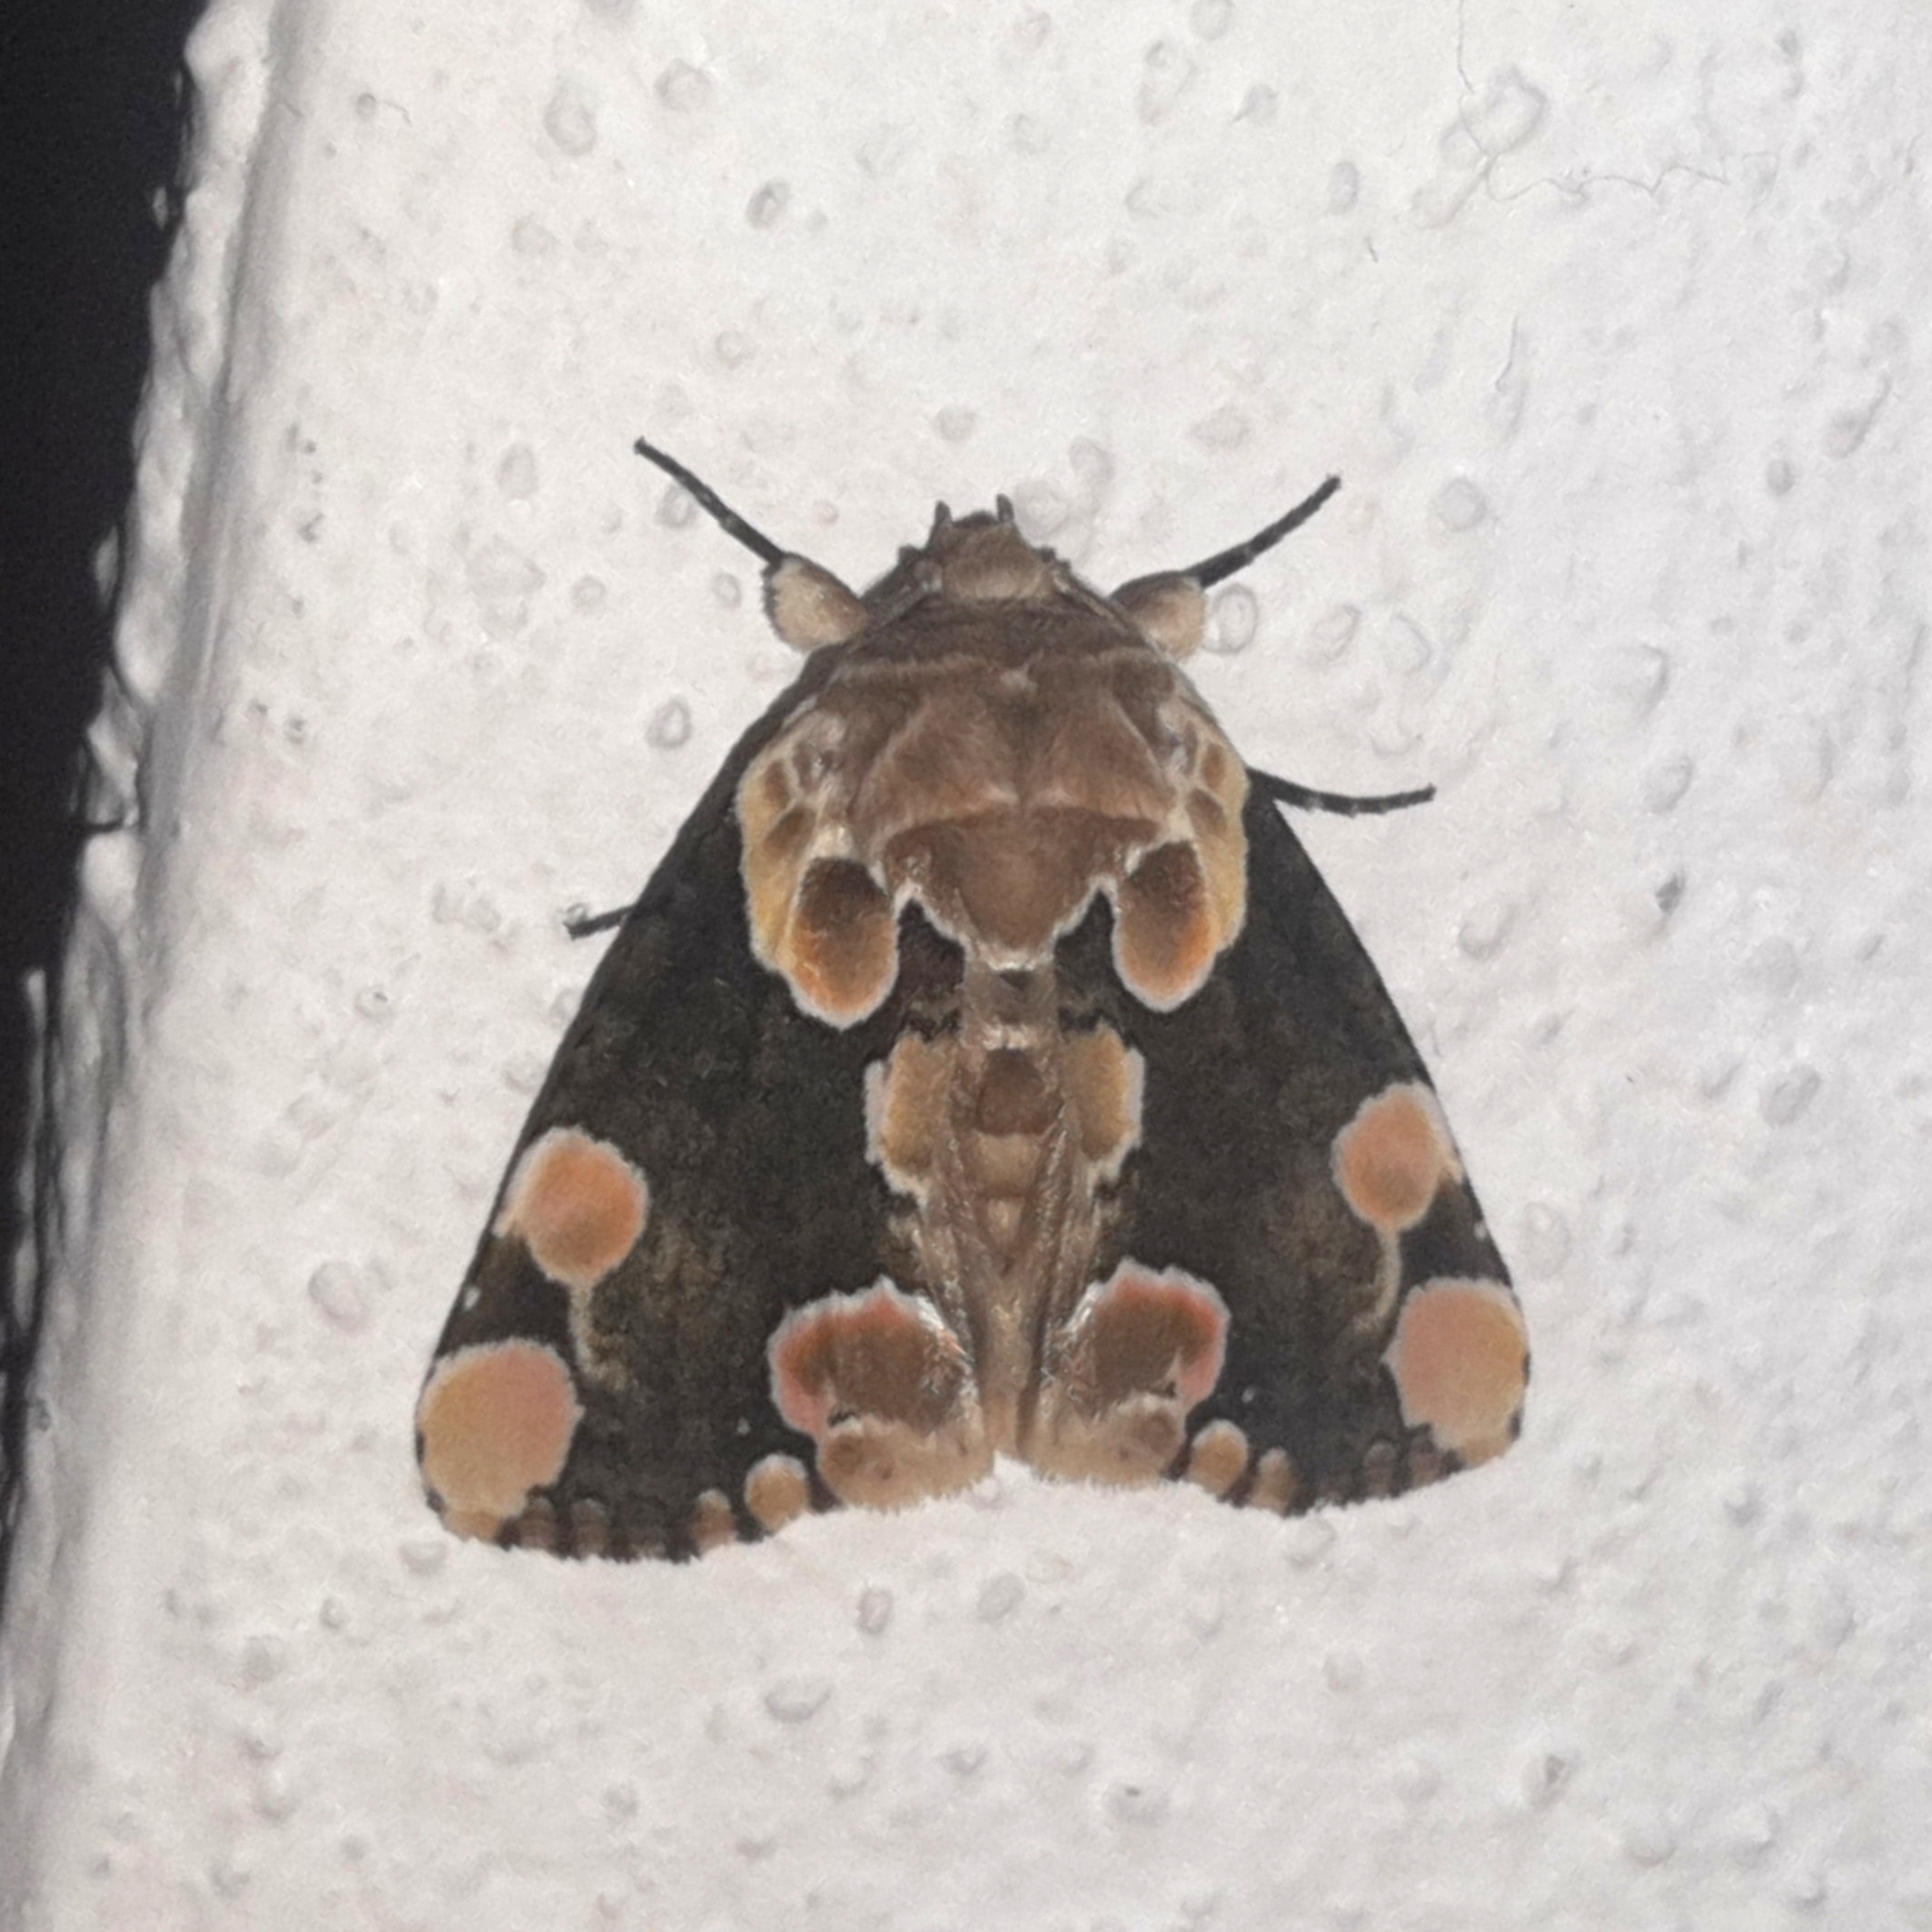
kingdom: Animalia
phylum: Arthropoda
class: Insecta
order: Lepidoptera
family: Drepanidae
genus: Thyatira
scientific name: Thyatira mexicana
